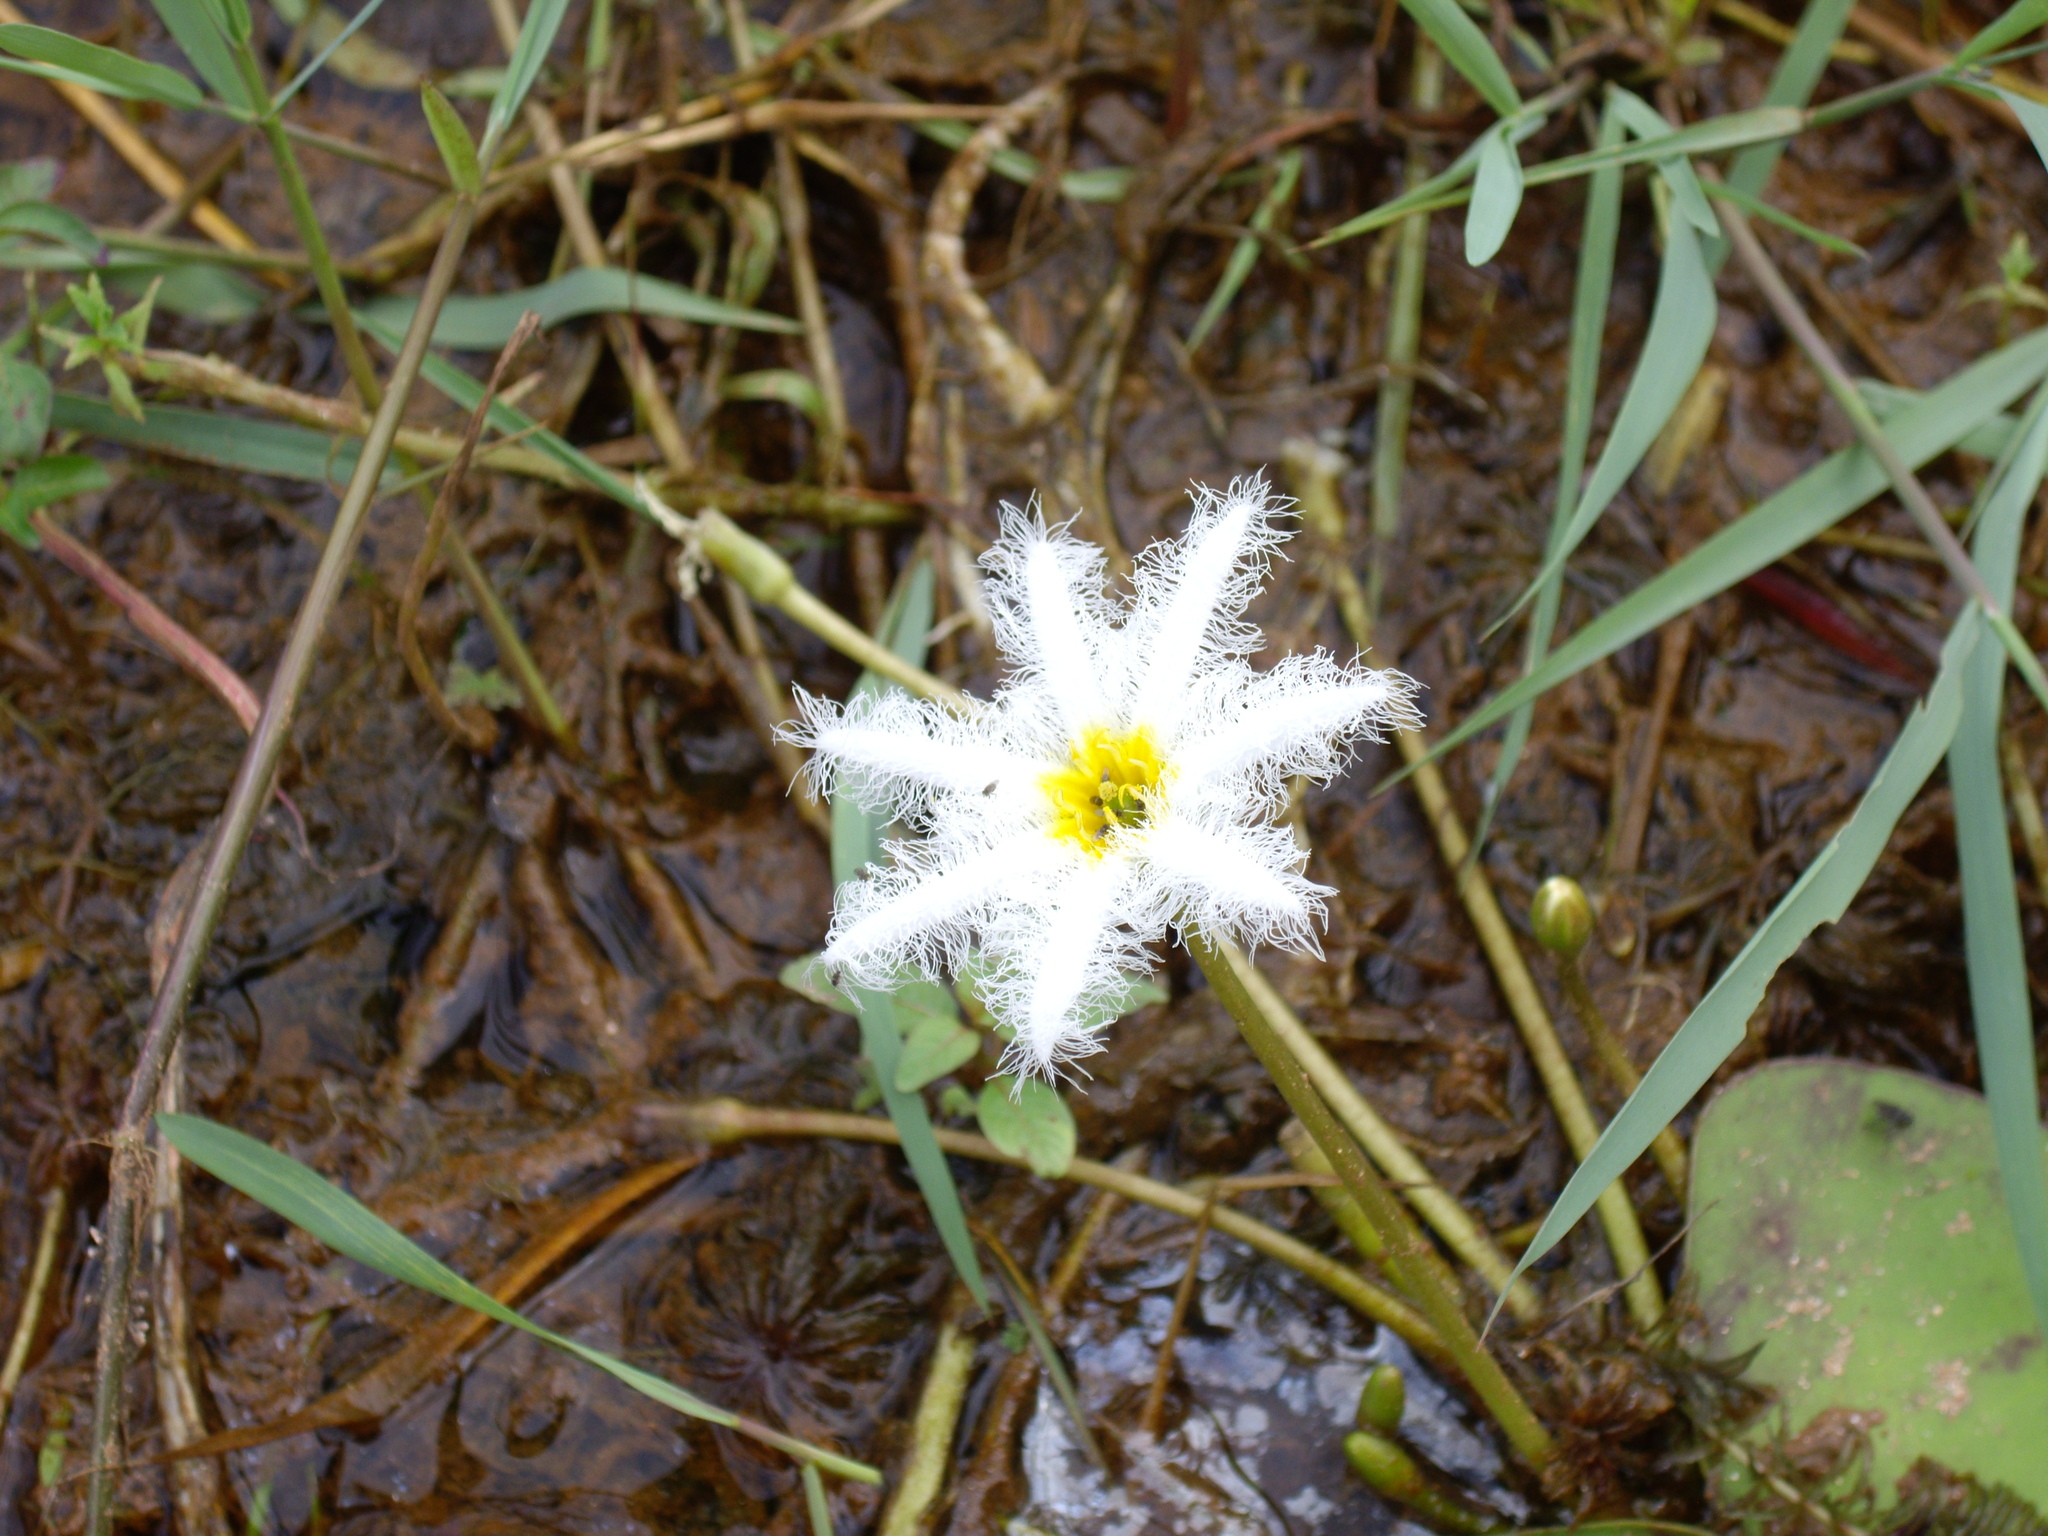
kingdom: Plantae
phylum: Tracheophyta
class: Magnoliopsida
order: Asterales
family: Menyanthaceae
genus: Nymphoides
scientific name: Nymphoides indica
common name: Water-snowflake
